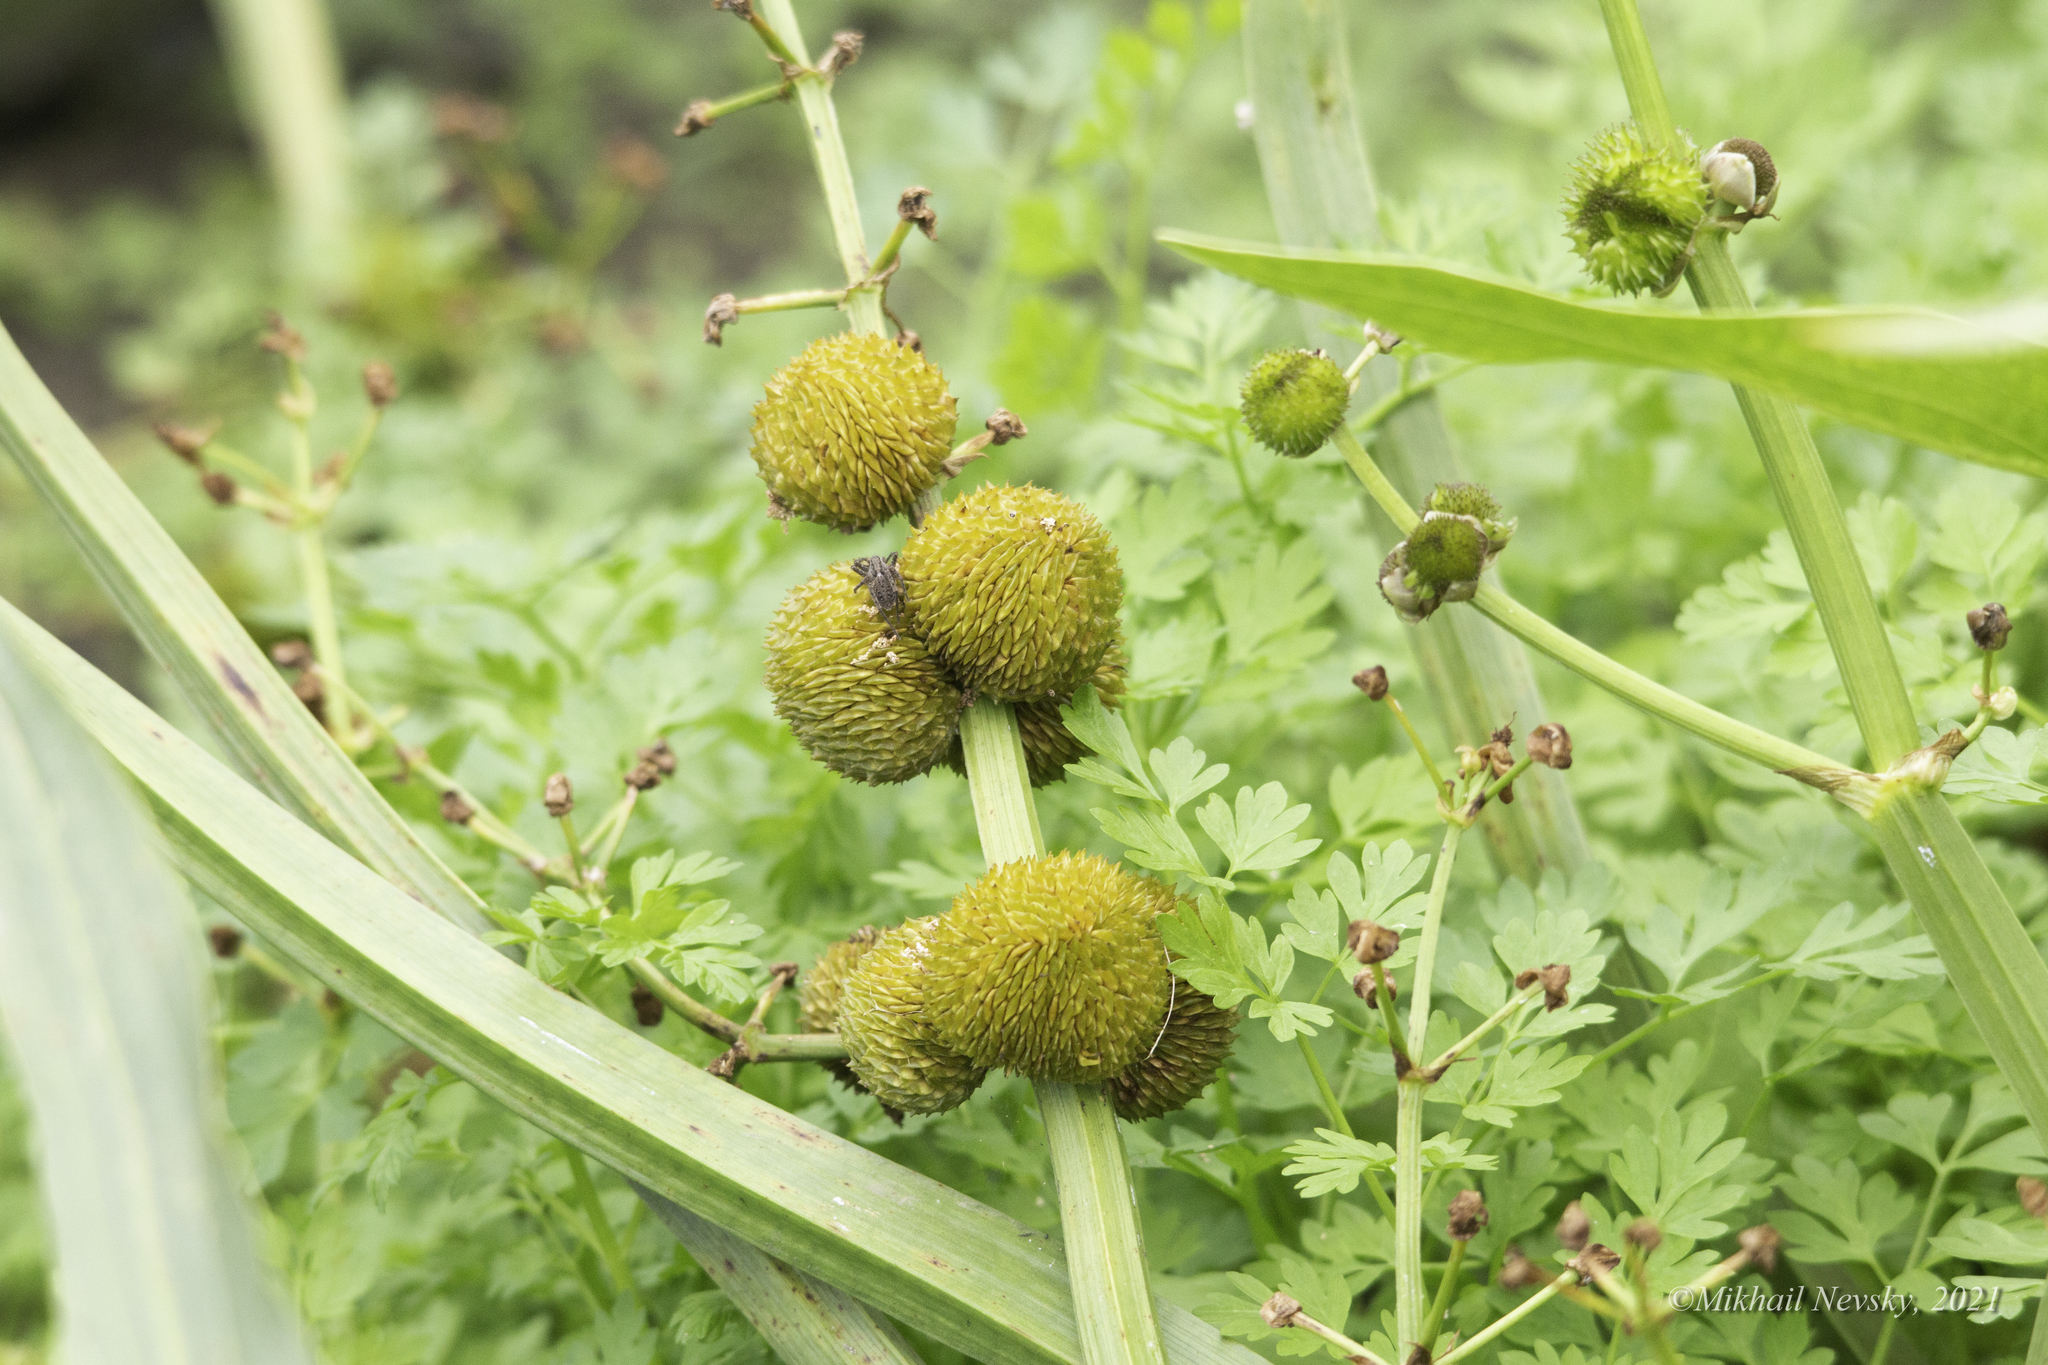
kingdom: Plantae
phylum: Tracheophyta
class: Liliopsida
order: Alismatales
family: Alismataceae
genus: Sagittaria
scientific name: Sagittaria sagittifolia
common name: Arrowhead
